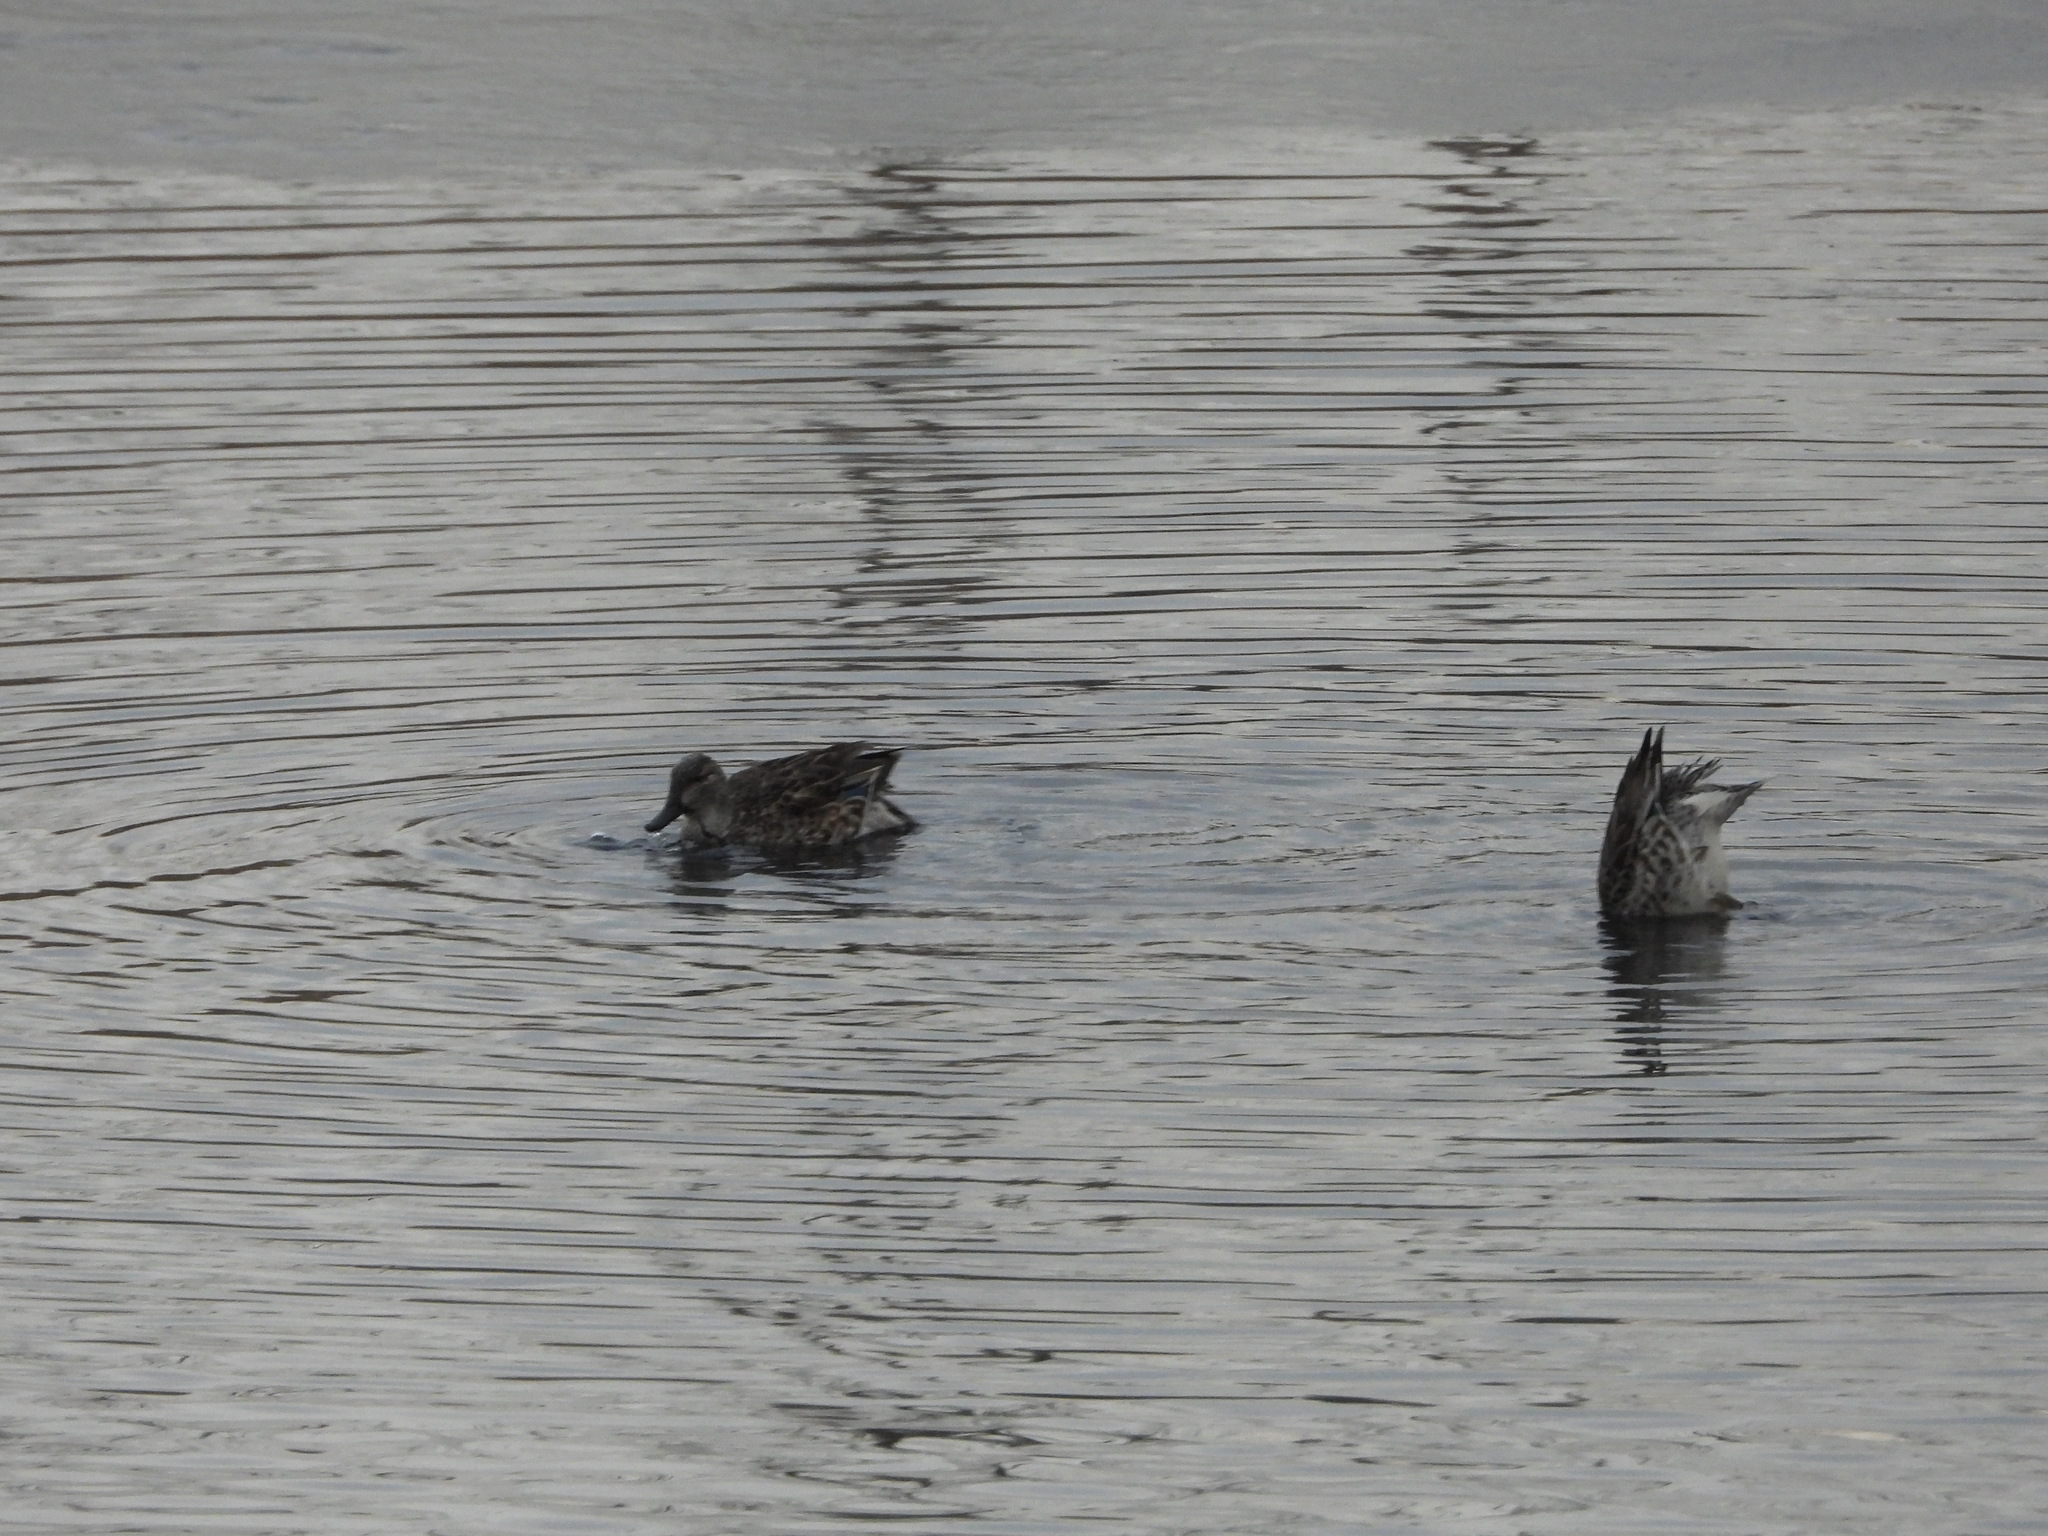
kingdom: Animalia
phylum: Chordata
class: Aves
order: Anseriformes
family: Anatidae
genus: Anas
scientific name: Anas crecca
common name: Eurasian teal
